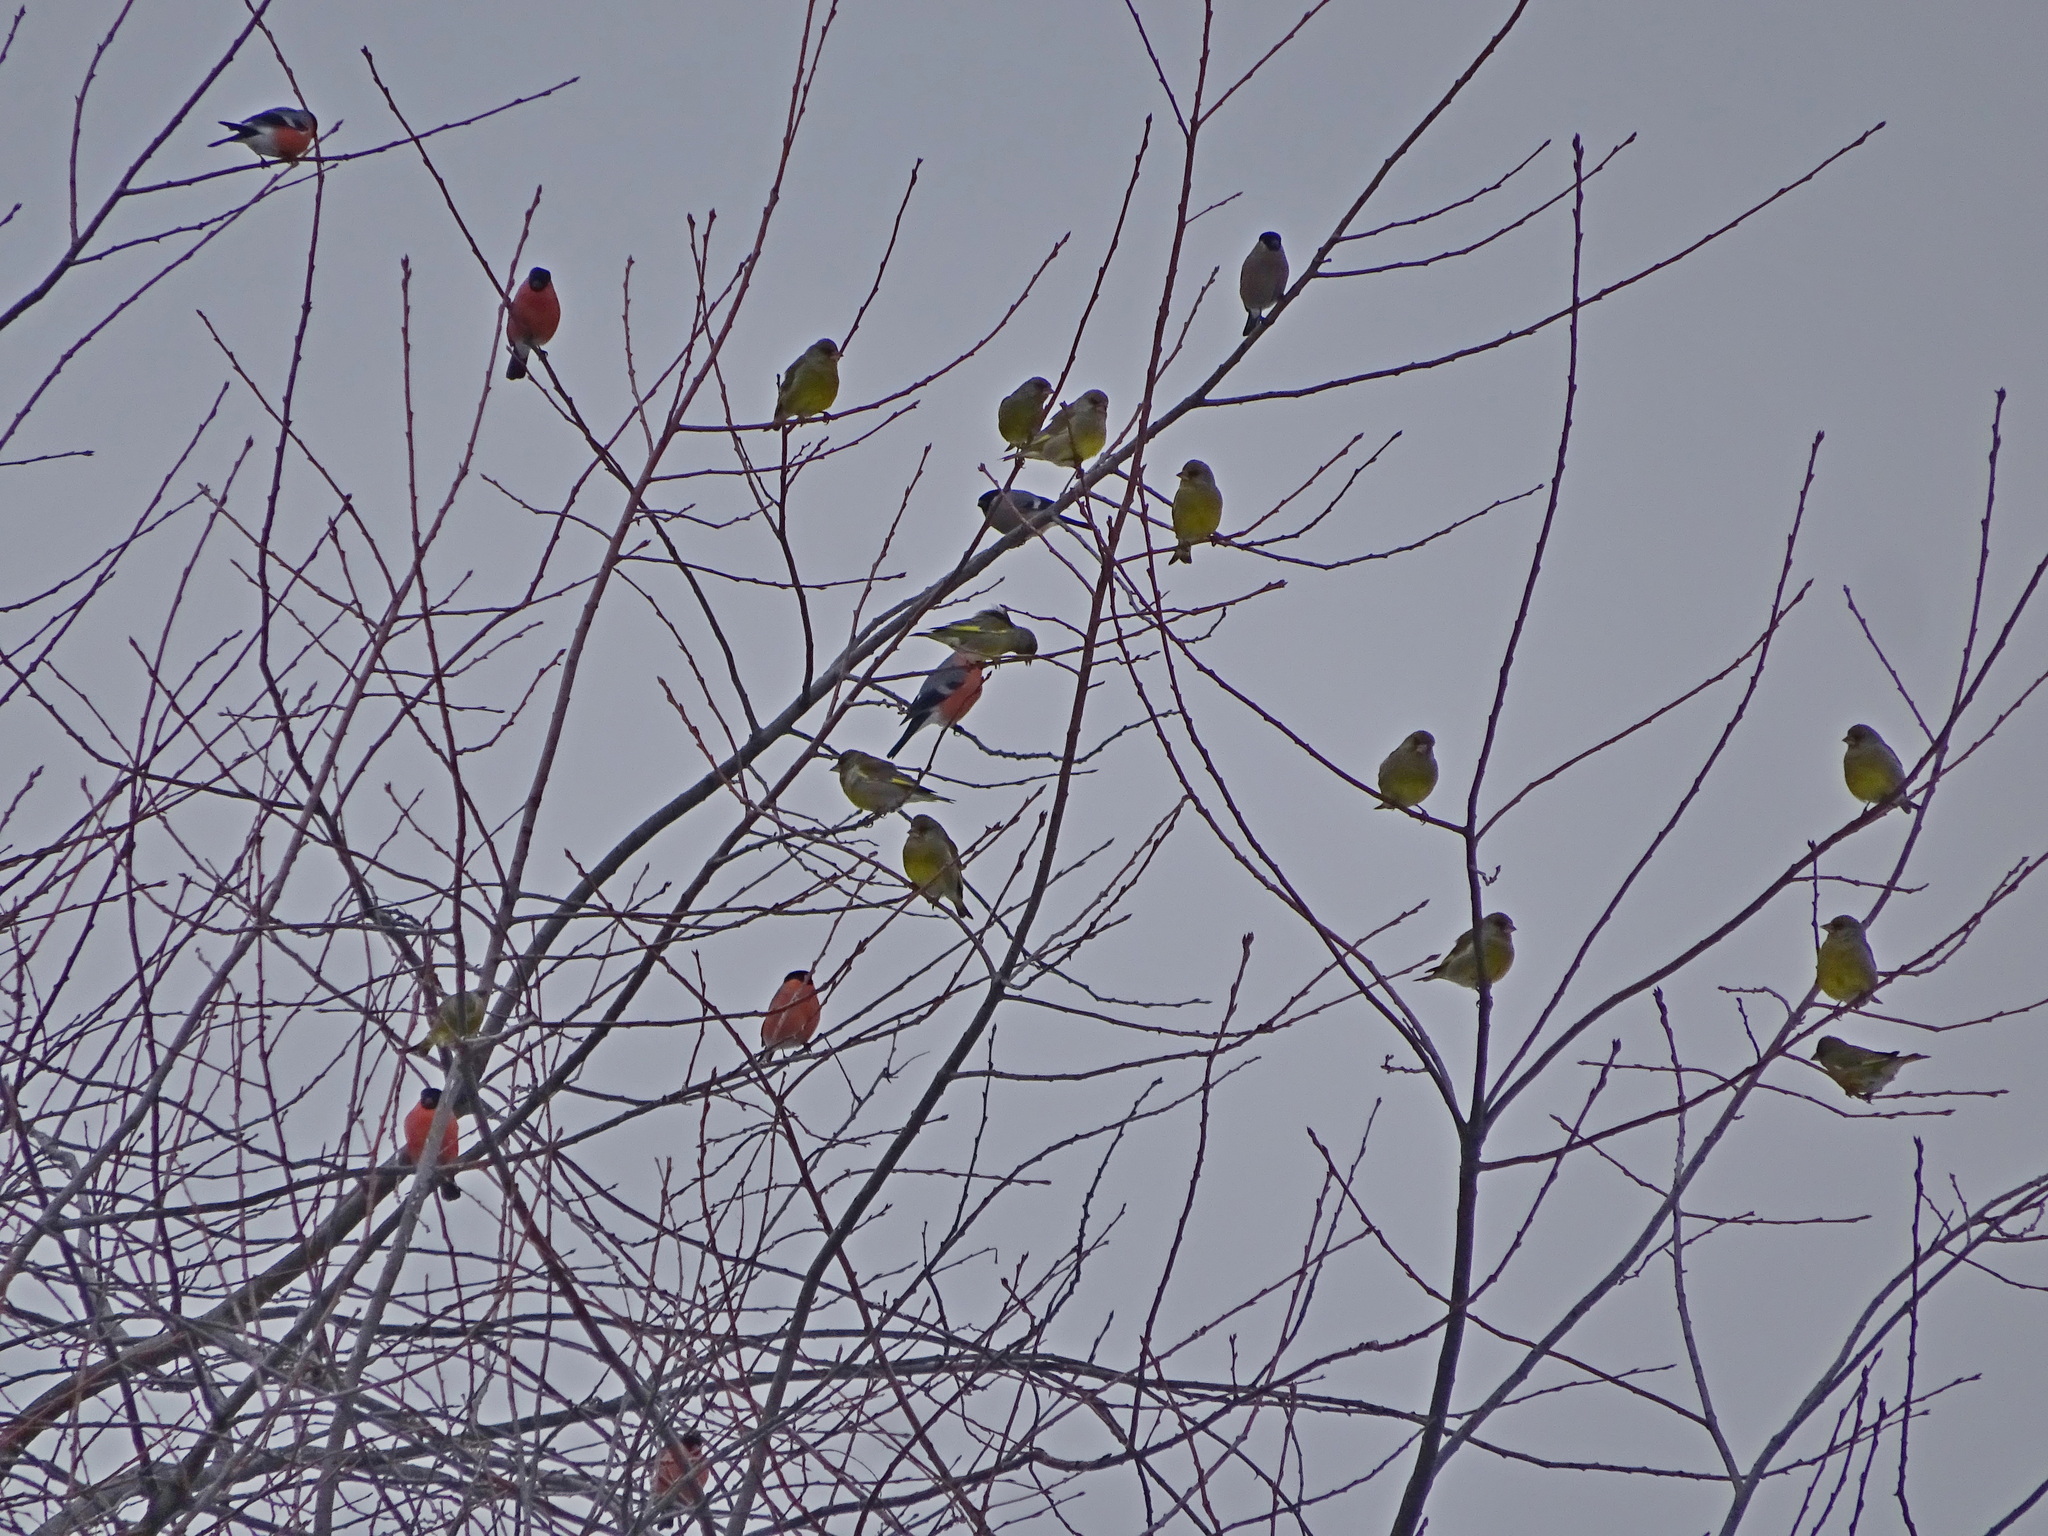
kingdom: Animalia
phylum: Chordata
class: Aves
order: Passeriformes
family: Fringillidae
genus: Pyrrhula
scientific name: Pyrrhula pyrrhula
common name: Eurasian bullfinch
